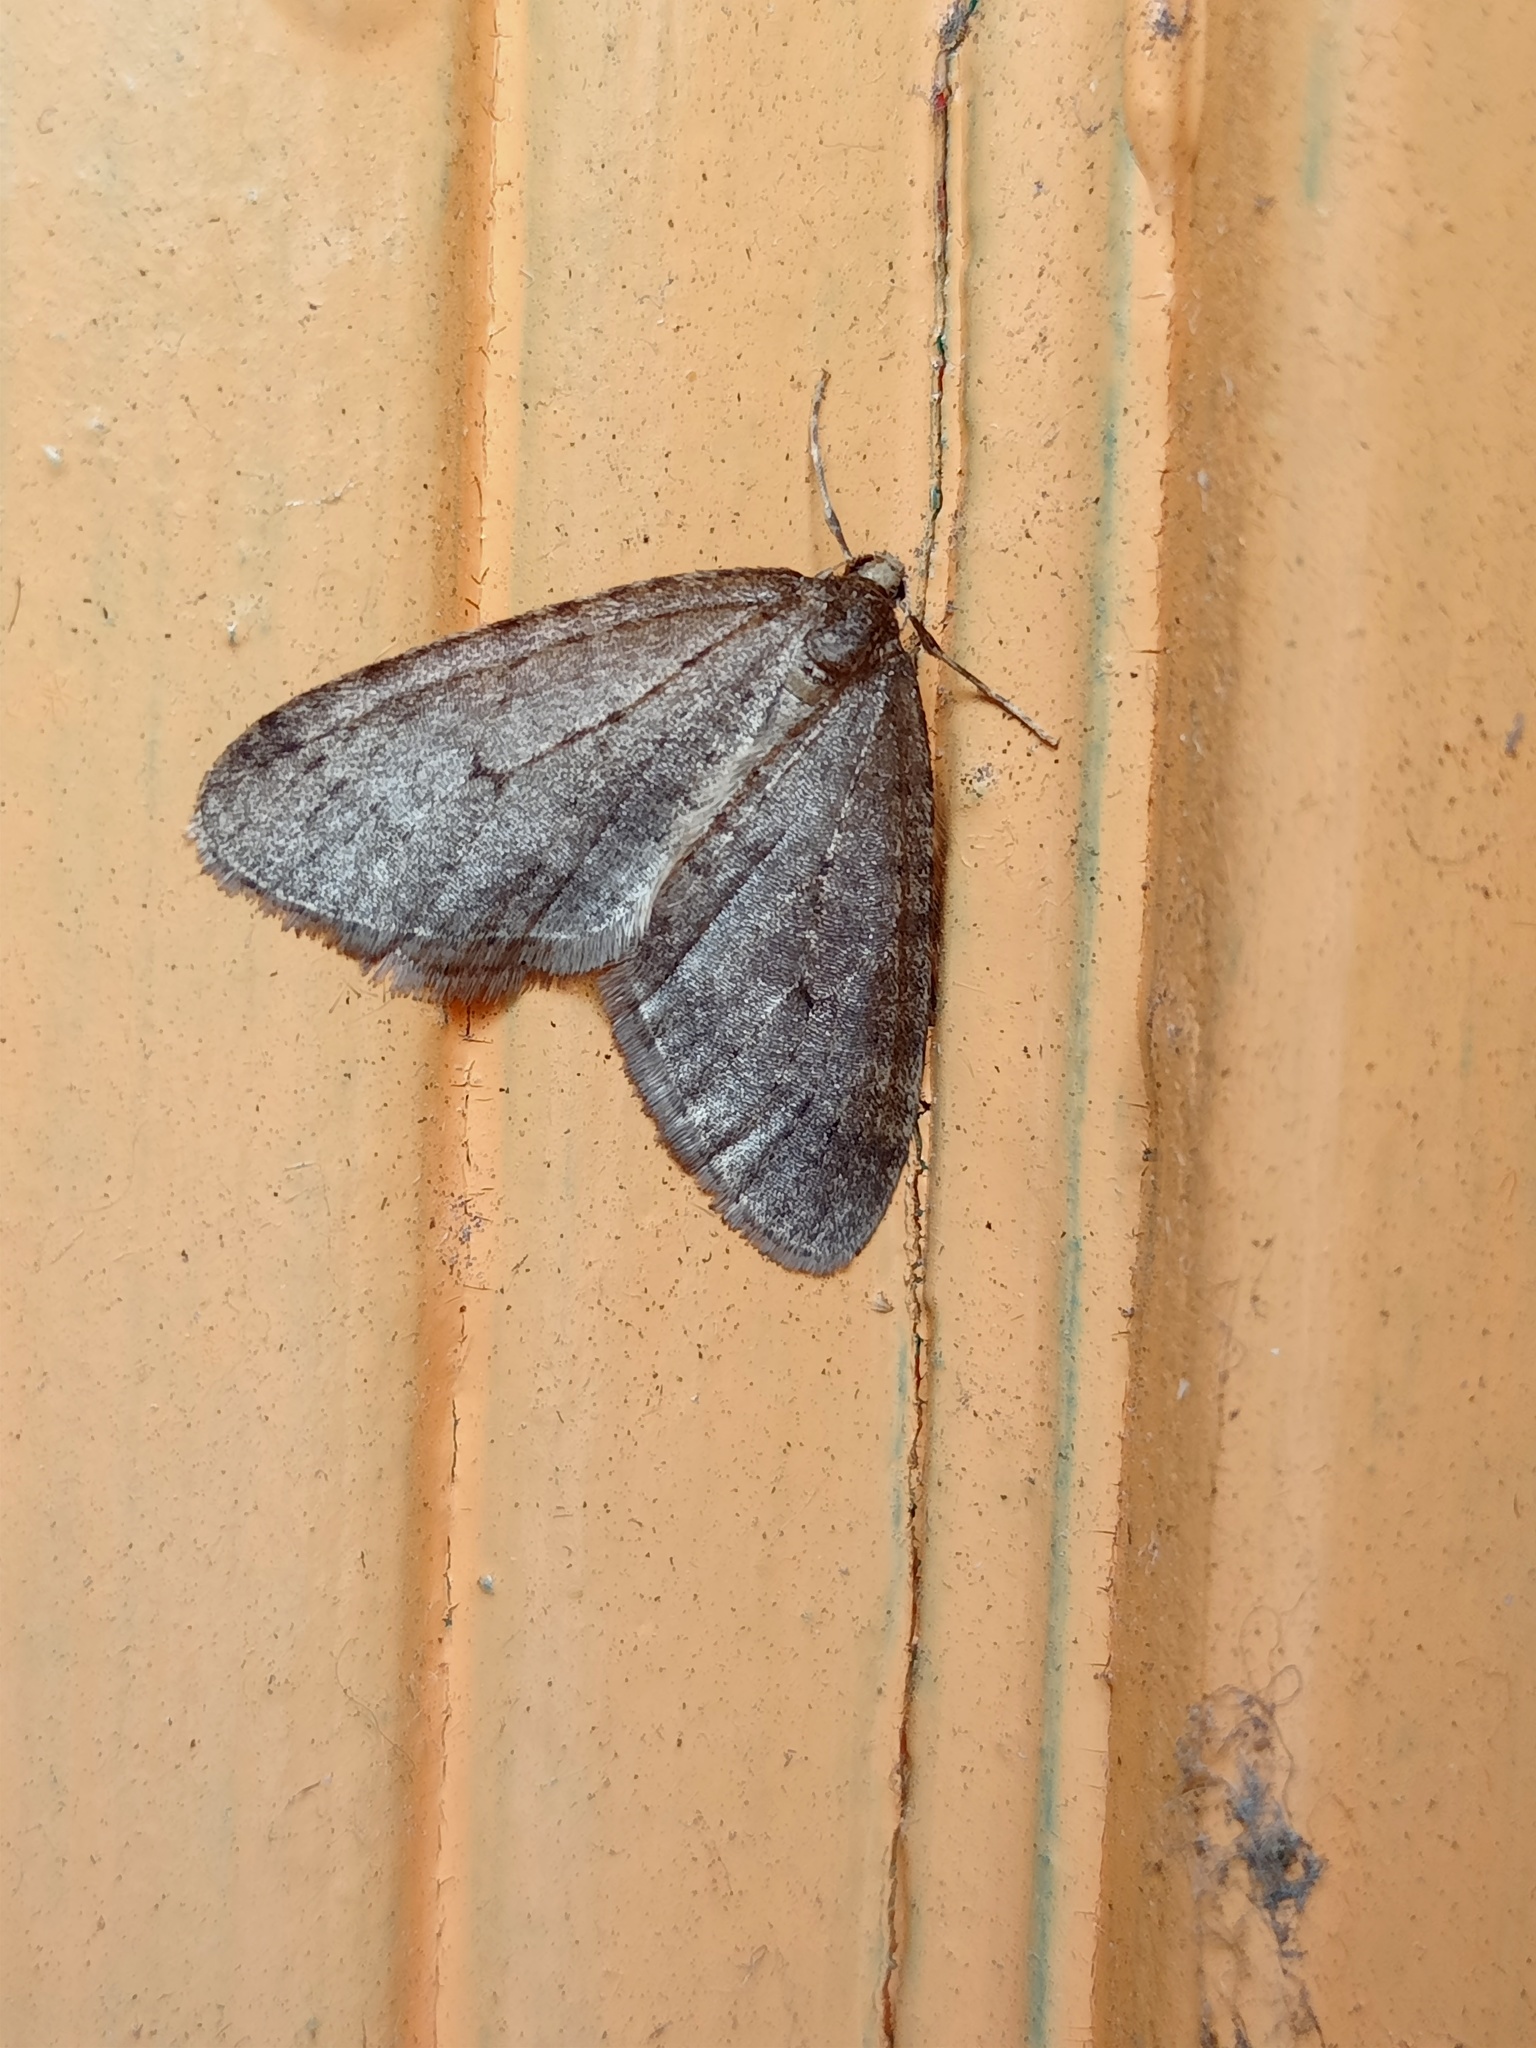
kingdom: Animalia
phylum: Arthropoda
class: Insecta
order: Lepidoptera
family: Geometridae
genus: Operophtera
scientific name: Operophtera brumata
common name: Winter moth
